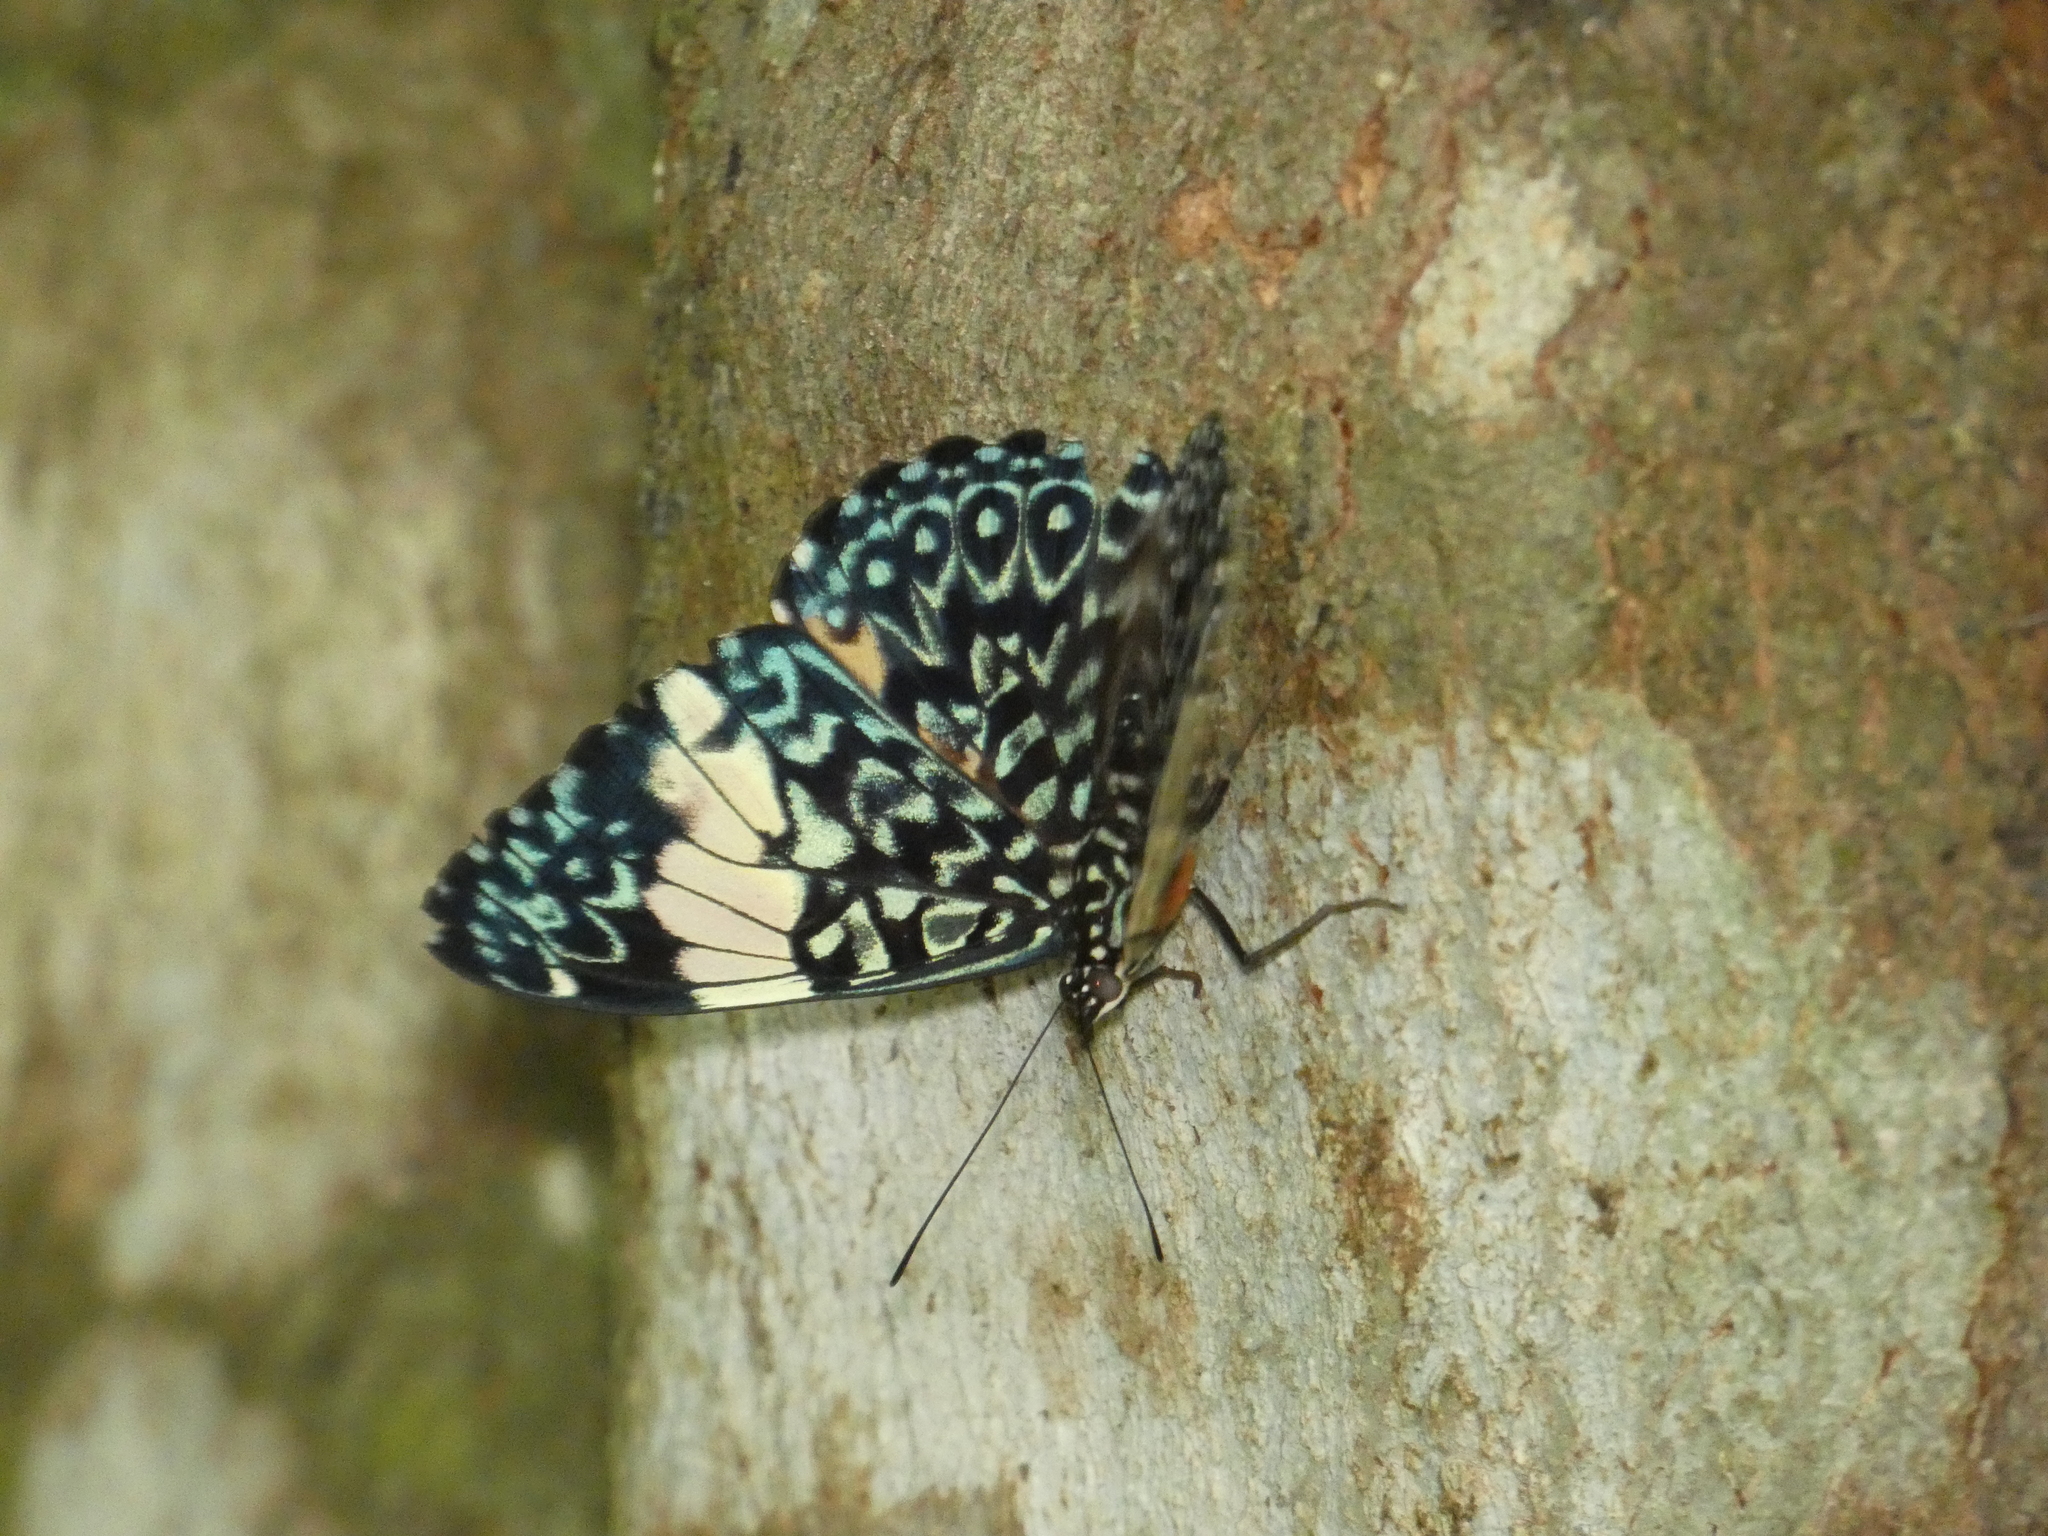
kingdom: Animalia
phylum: Arthropoda
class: Insecta
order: Lepidoptera
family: Nymphalidae
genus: Hamadryas
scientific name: Hamadryas amphinome
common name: Red cracker
